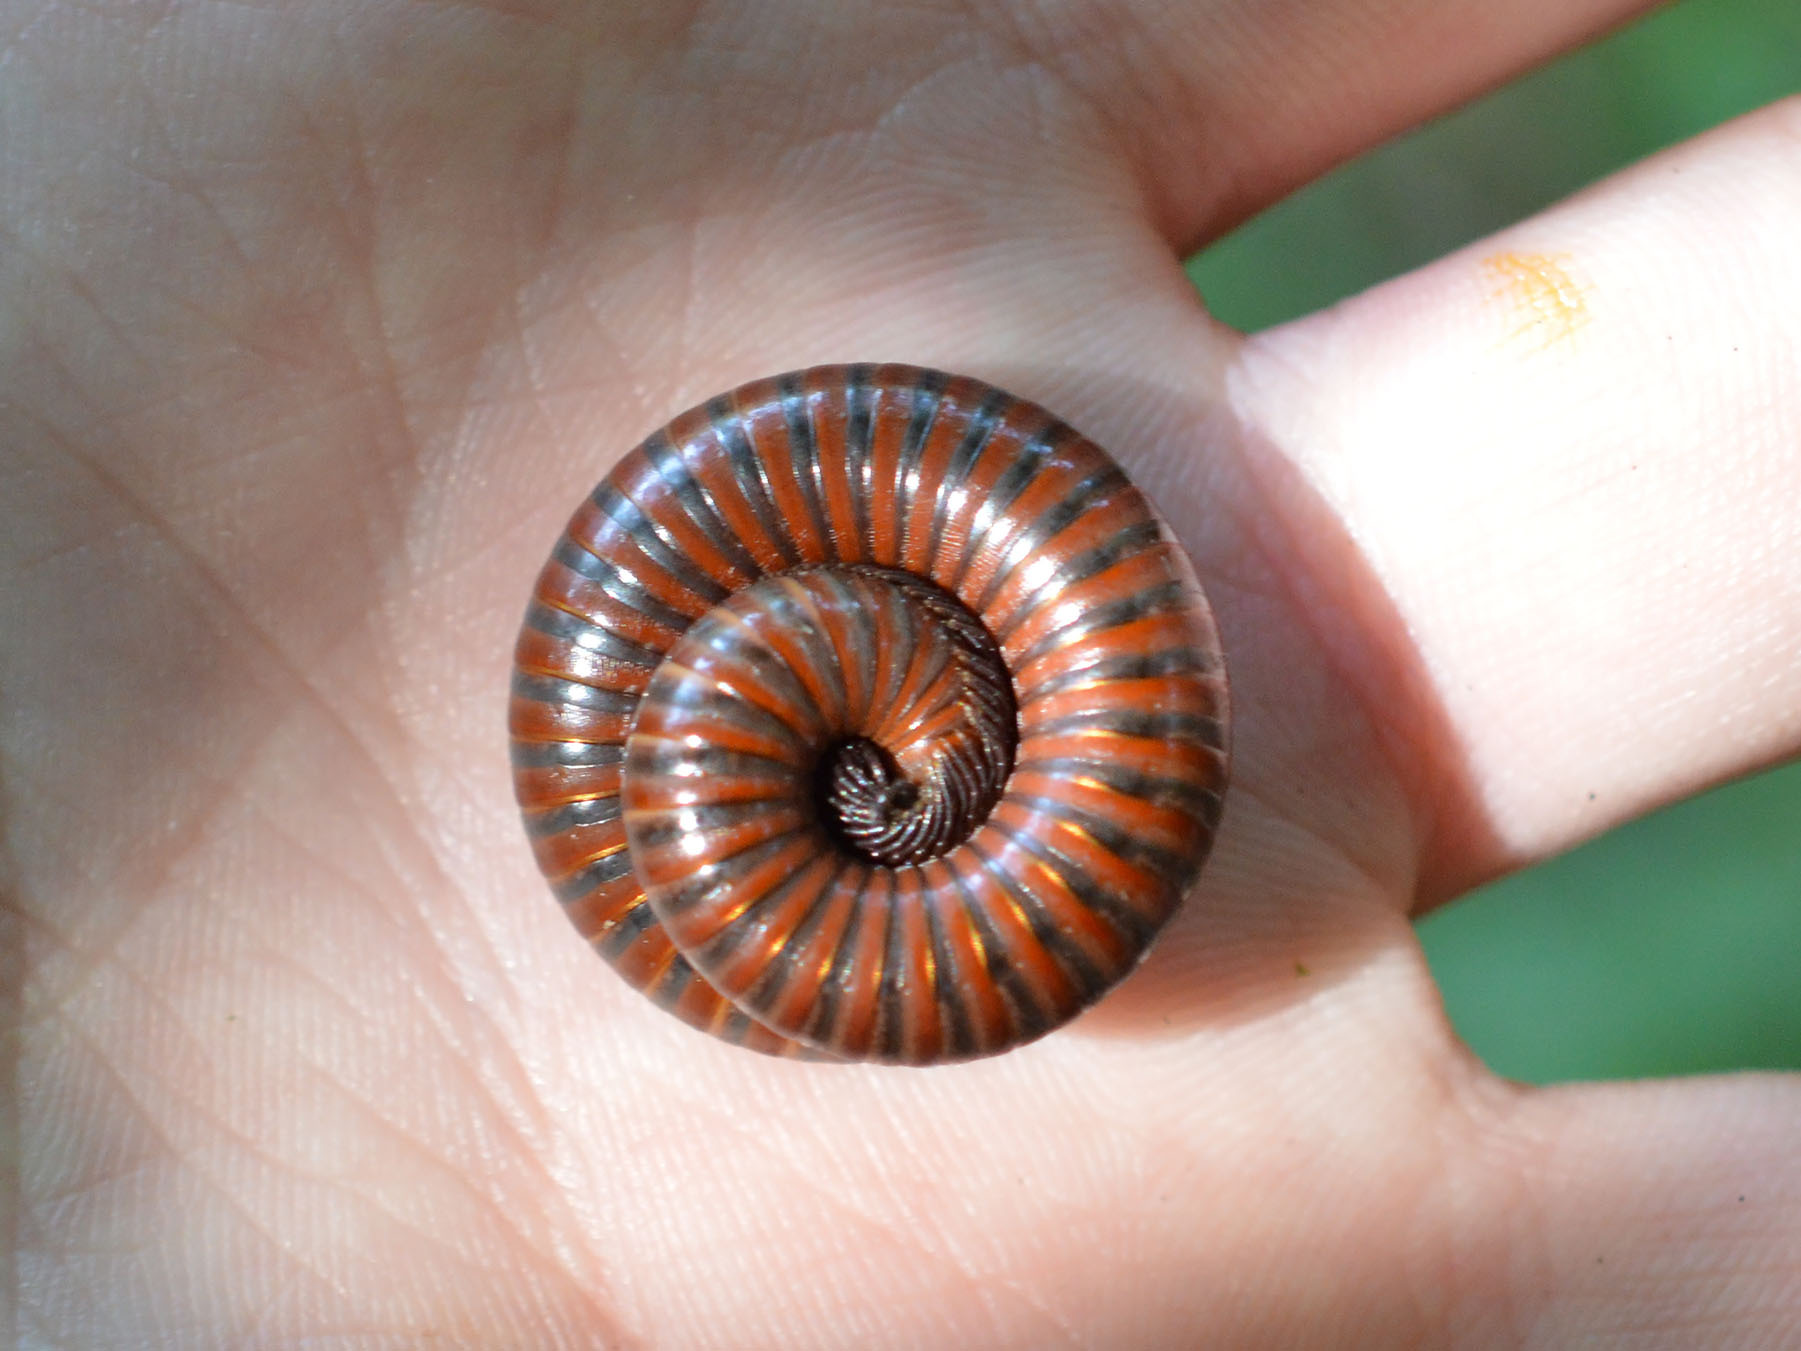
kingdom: Animalia
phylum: Arthropoda
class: Diplopoda
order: Julida
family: Julidae
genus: Pachyiulus
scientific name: Pachyiulus hungaricus
